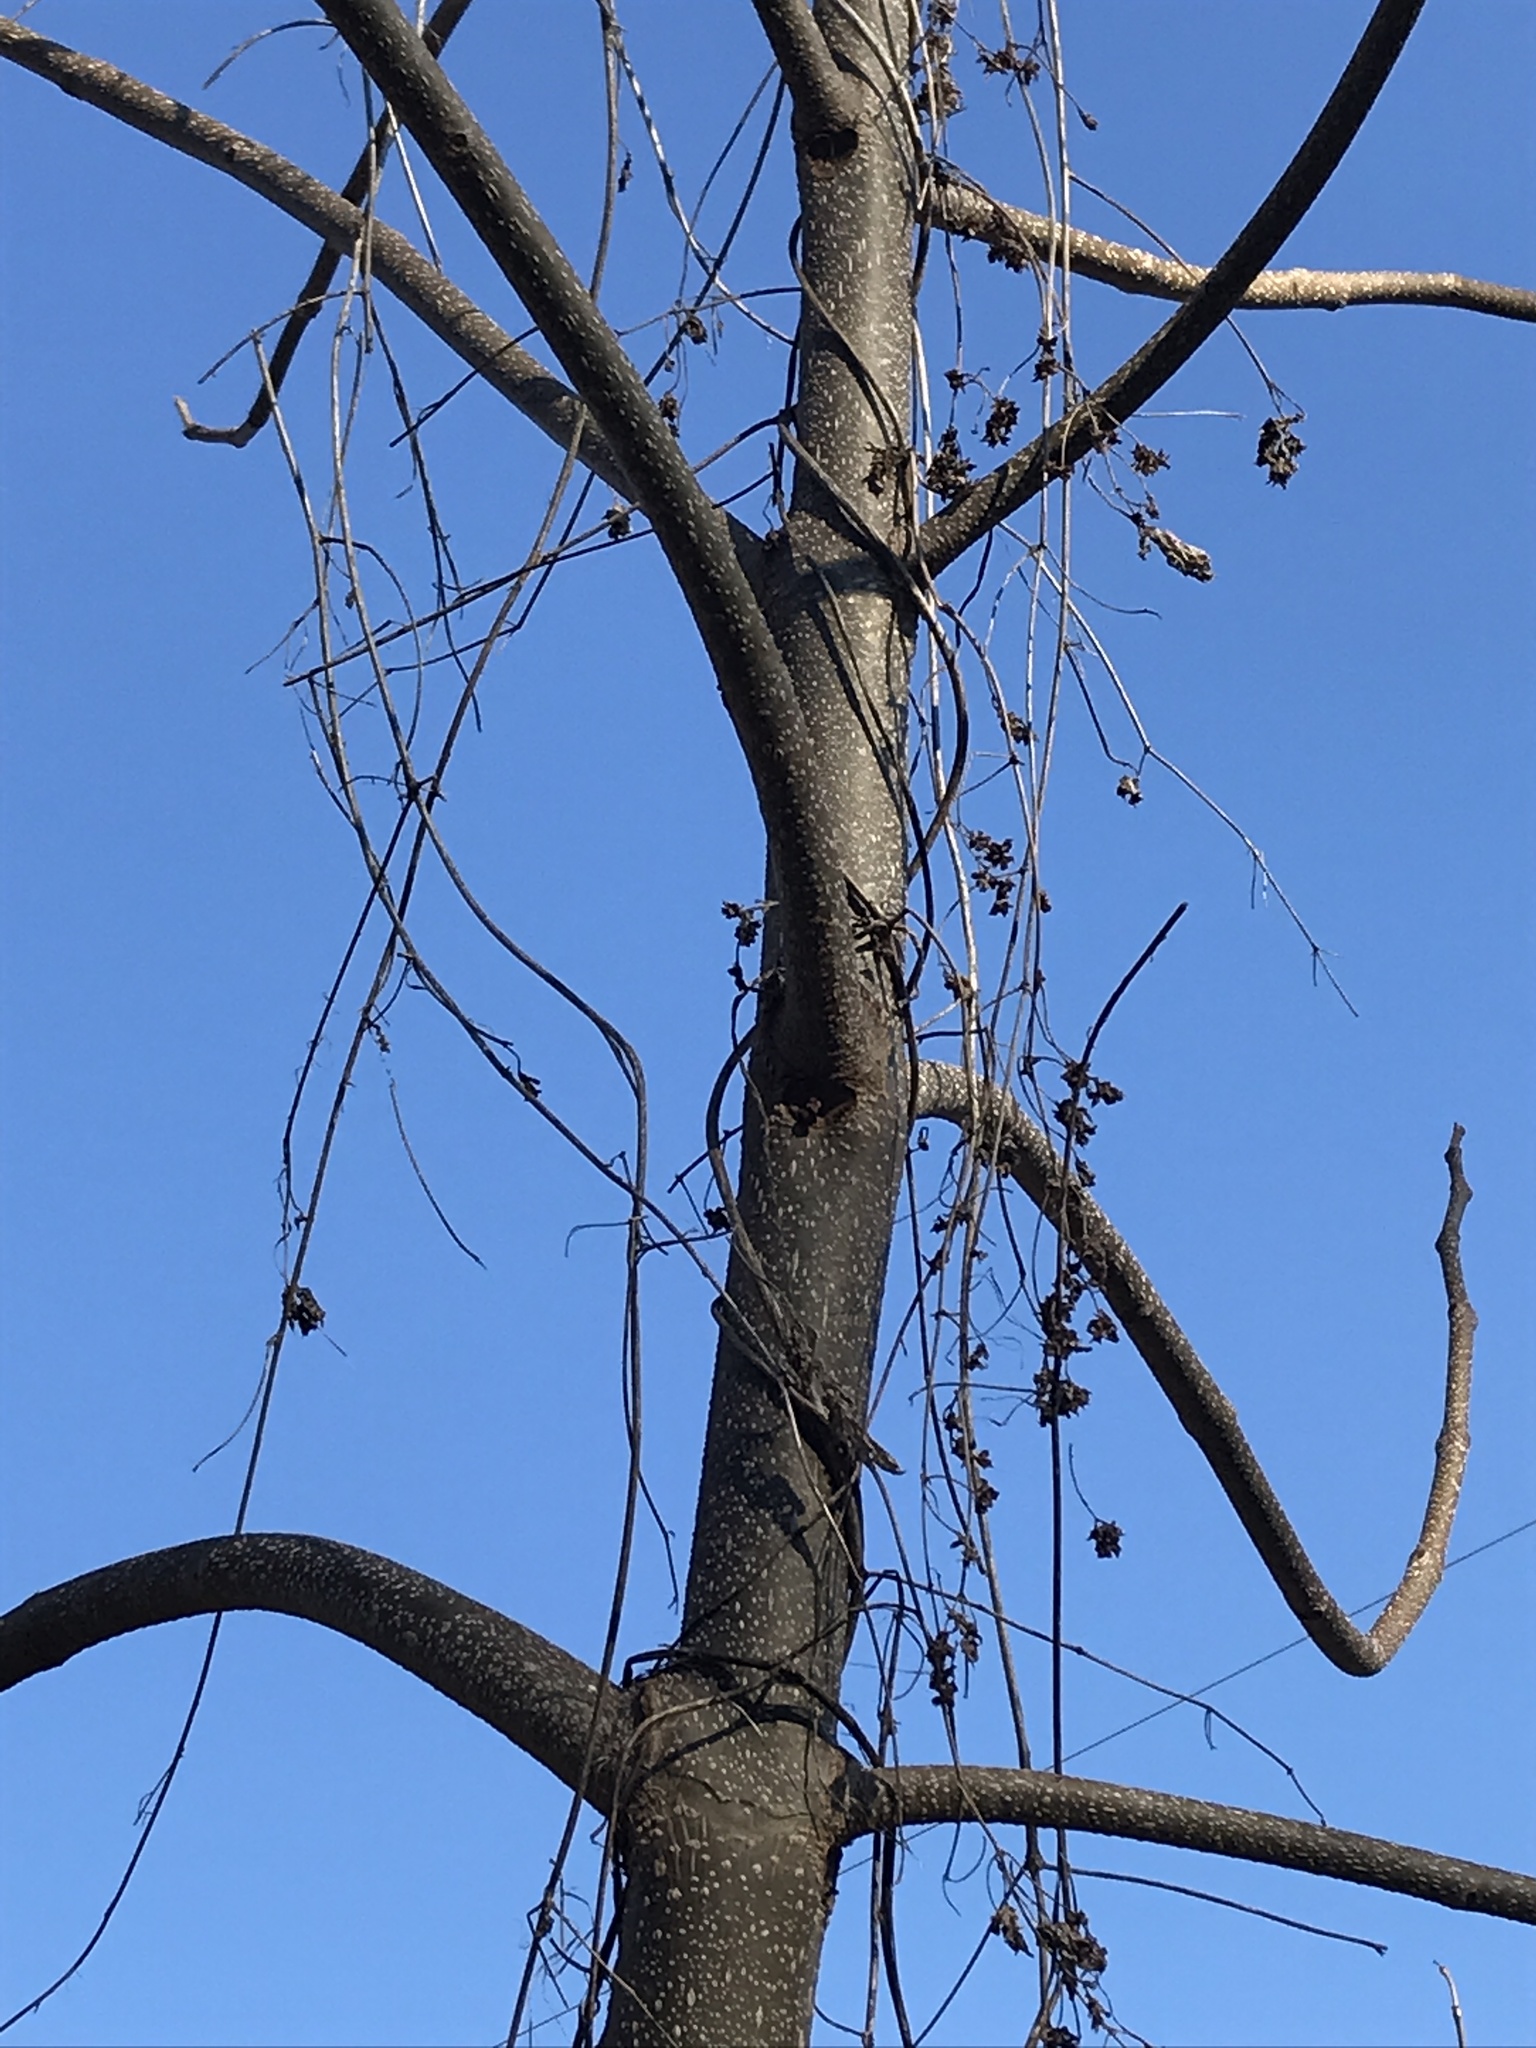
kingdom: Plantae
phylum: Tracheophyta
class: Magnoliopsida
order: Lamiales
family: Paulowniaceae
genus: Paulownia
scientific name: Paulownia tomentosa
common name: Foxglove-tree
